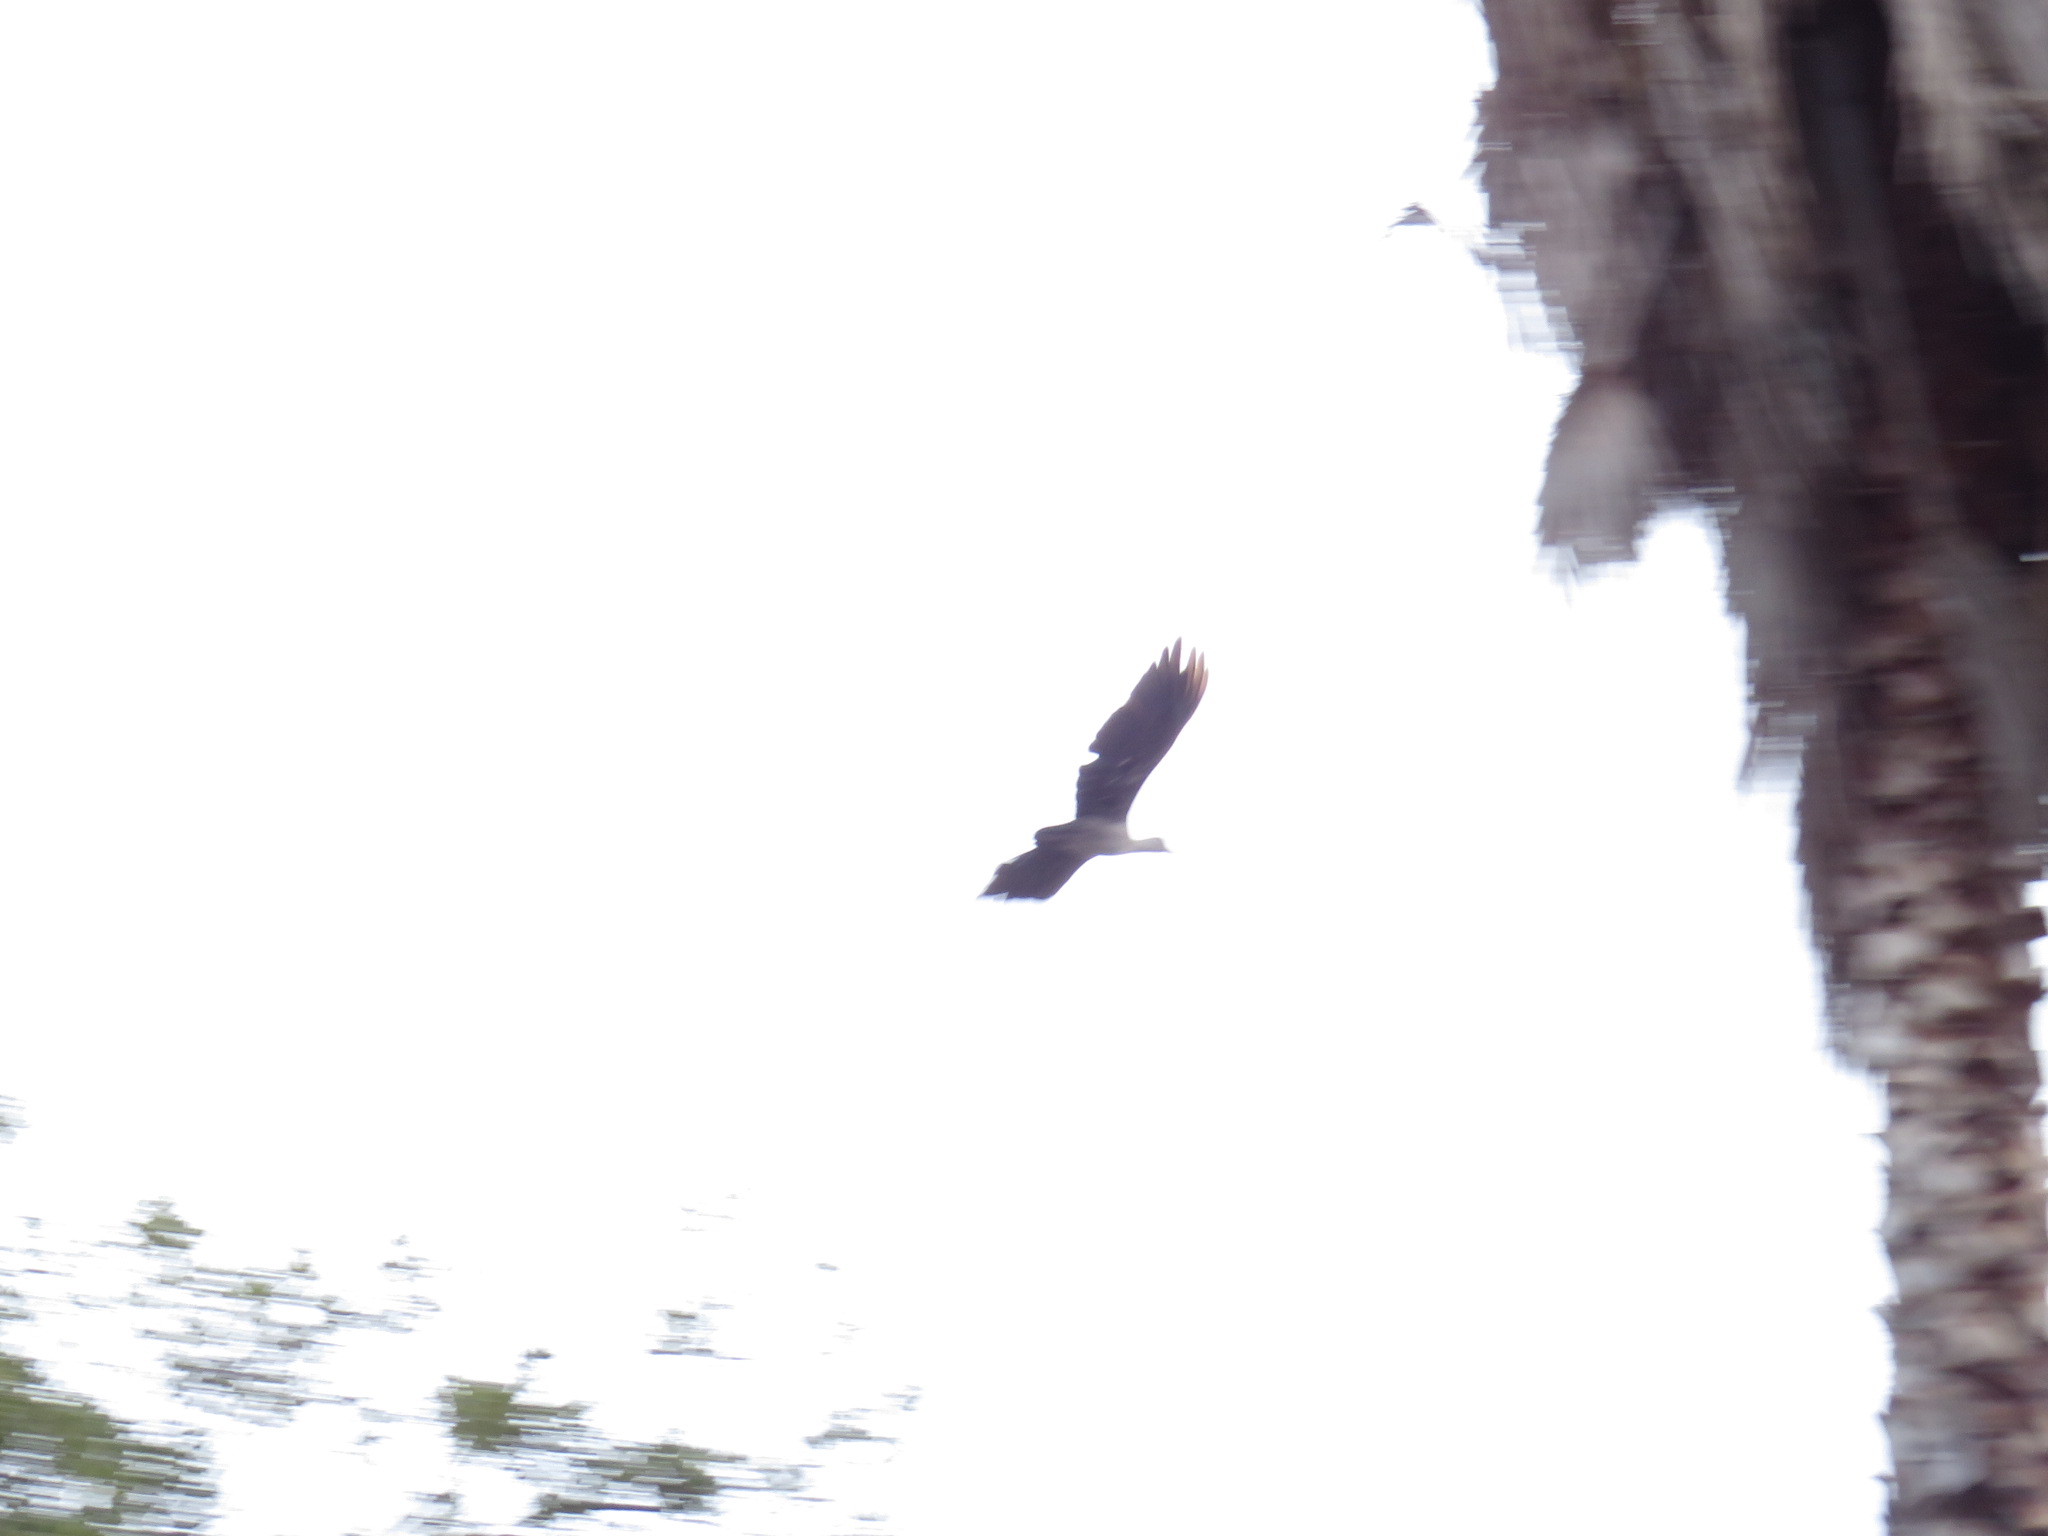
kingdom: Animalia
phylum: Chordata
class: Aves
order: Pelecaniformes
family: Threskiornithidae
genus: Bostrychia
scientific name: Bostrychia hagedash
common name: Hadada ibis
